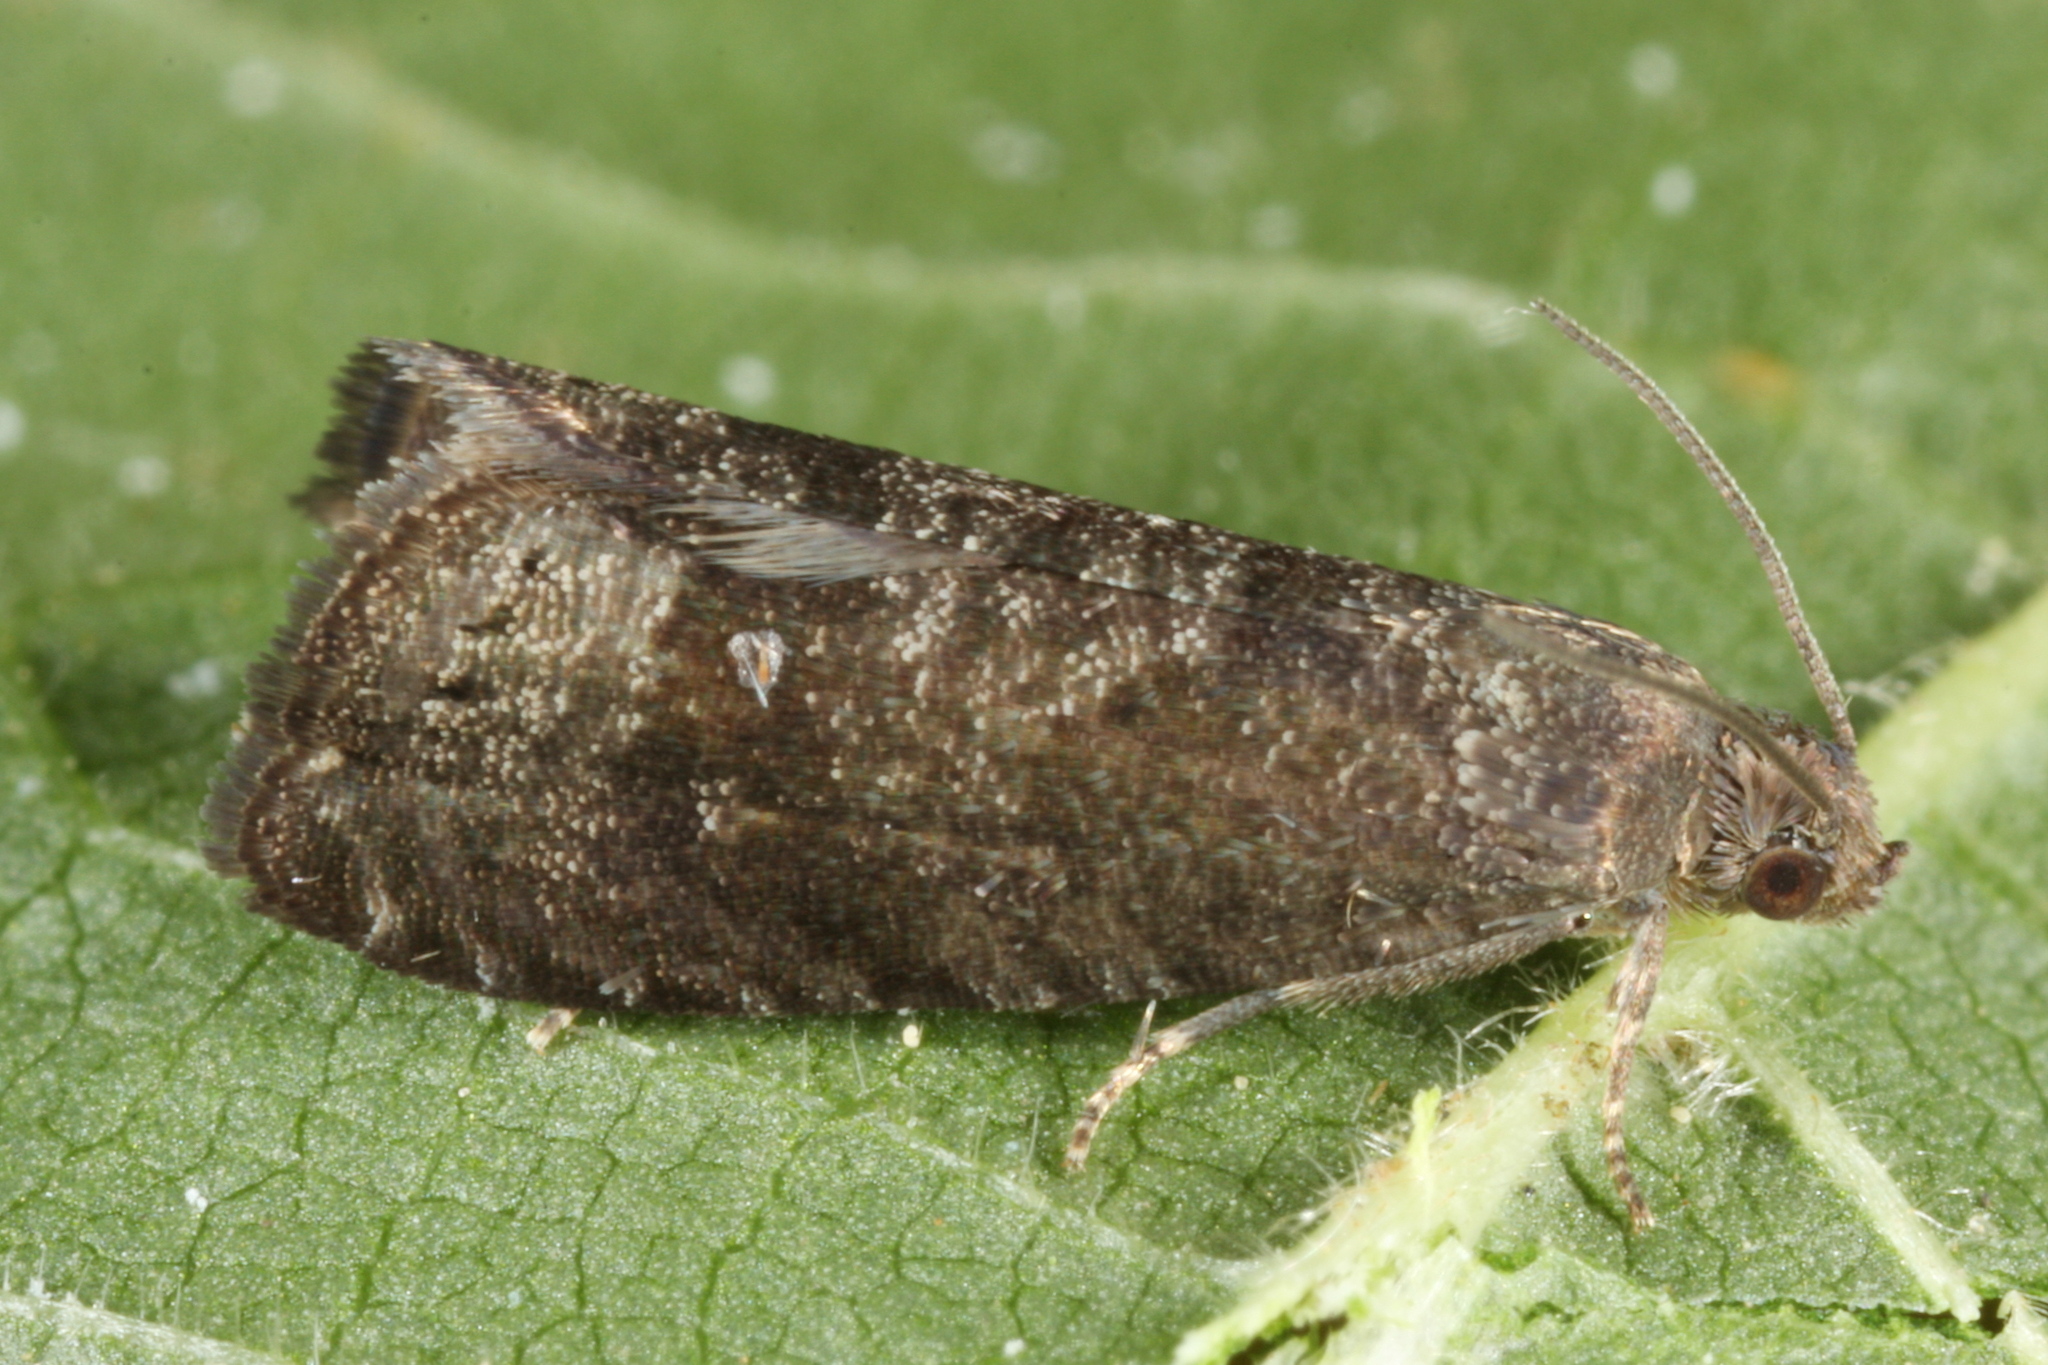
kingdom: Animalia
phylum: Arthropoda
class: Insecta
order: Lepidoptera
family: Noctuidae
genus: Aspila
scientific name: Aspila
